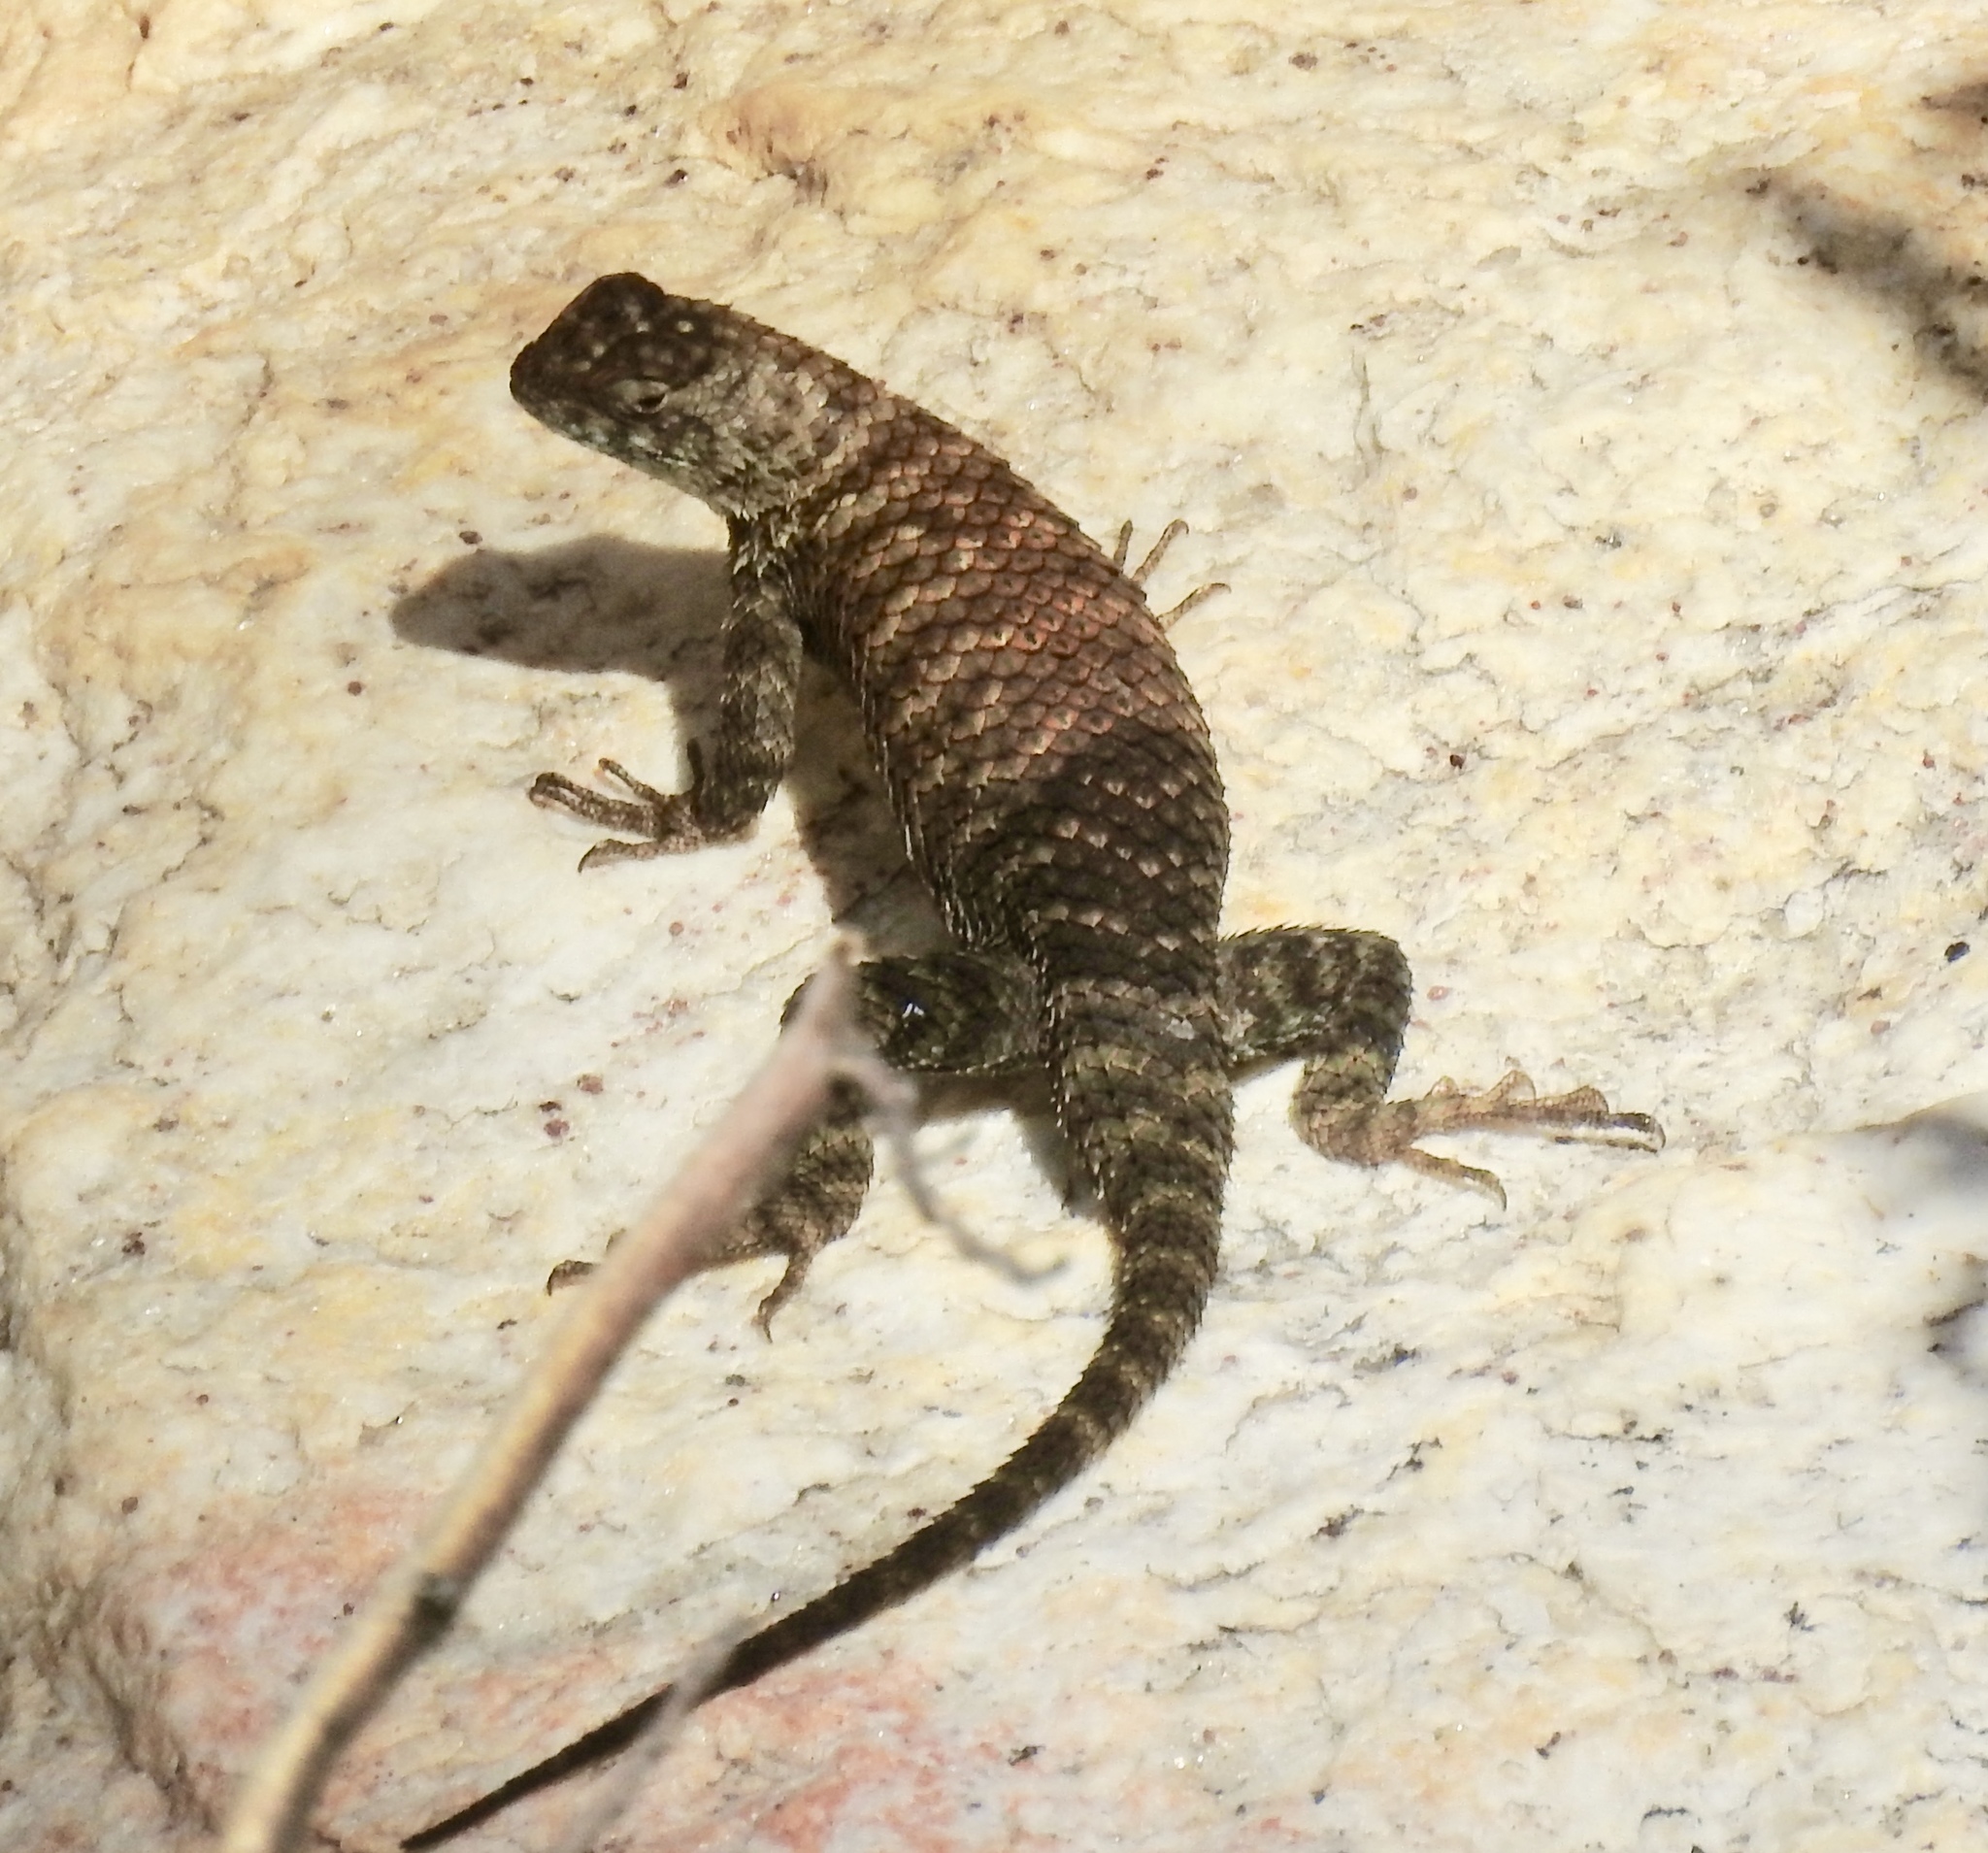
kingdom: Animalia
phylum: Chordata
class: Squamata
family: Phrynosomatidae
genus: Sceloporus
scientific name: Sceloporus orcutti
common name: Granite spiny lizard
